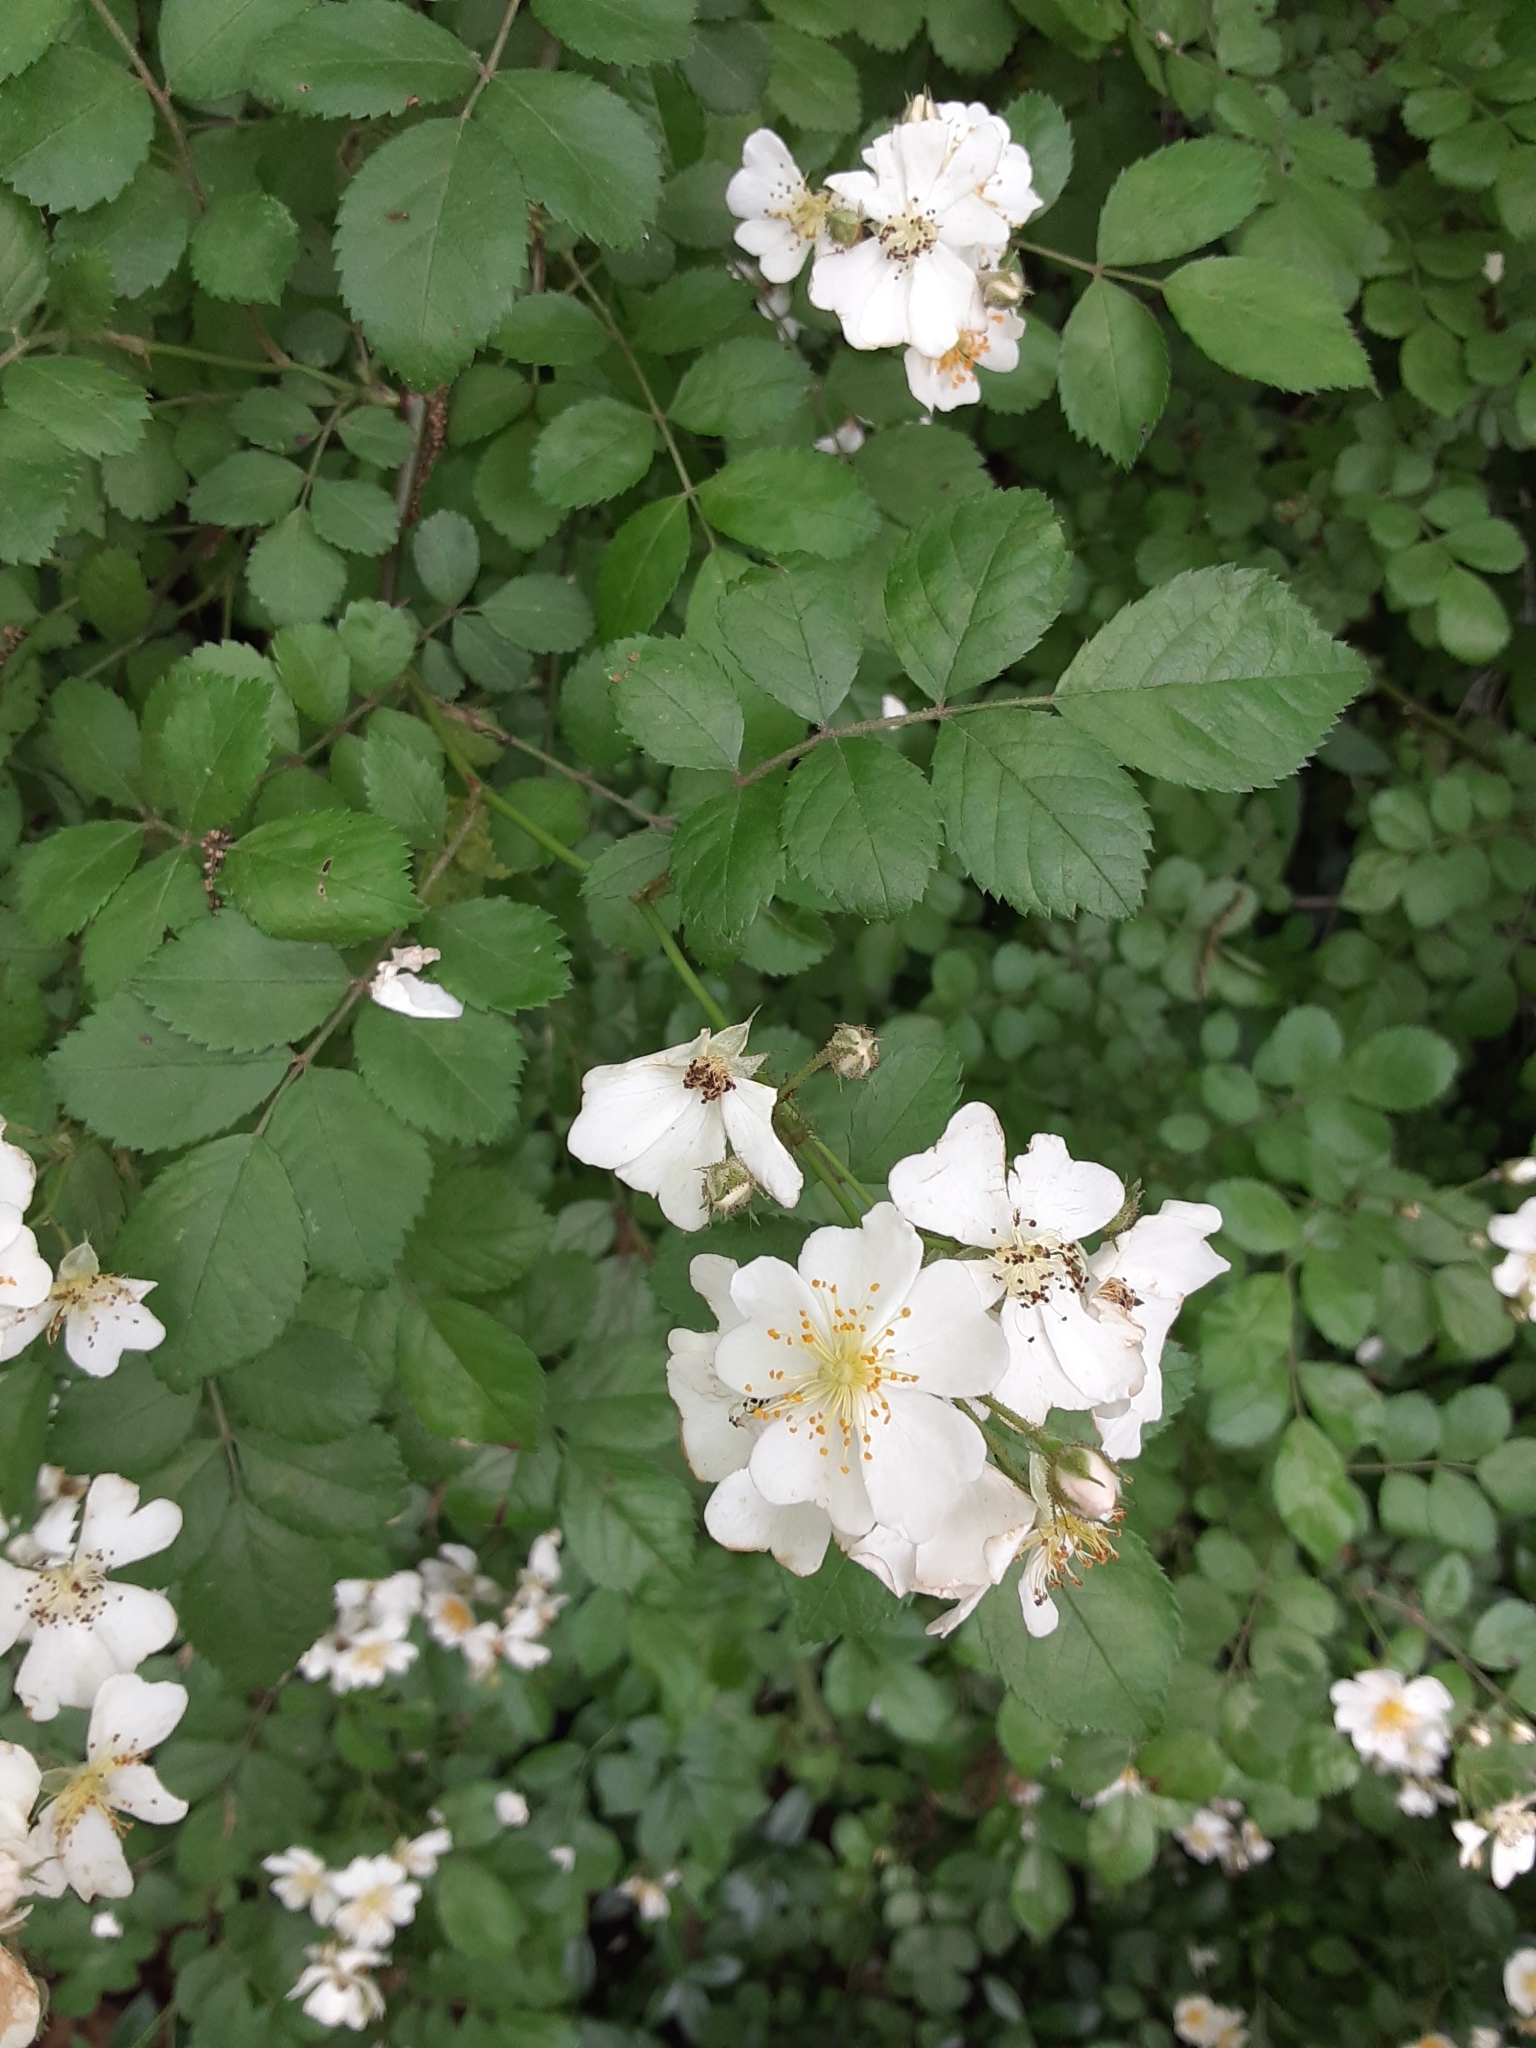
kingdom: Plantae
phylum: Tracheophyta
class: Magnoliopsida
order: Rosales
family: Rosaceae
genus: Rosa
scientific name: Rosa multiflora
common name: Multiflora rose
